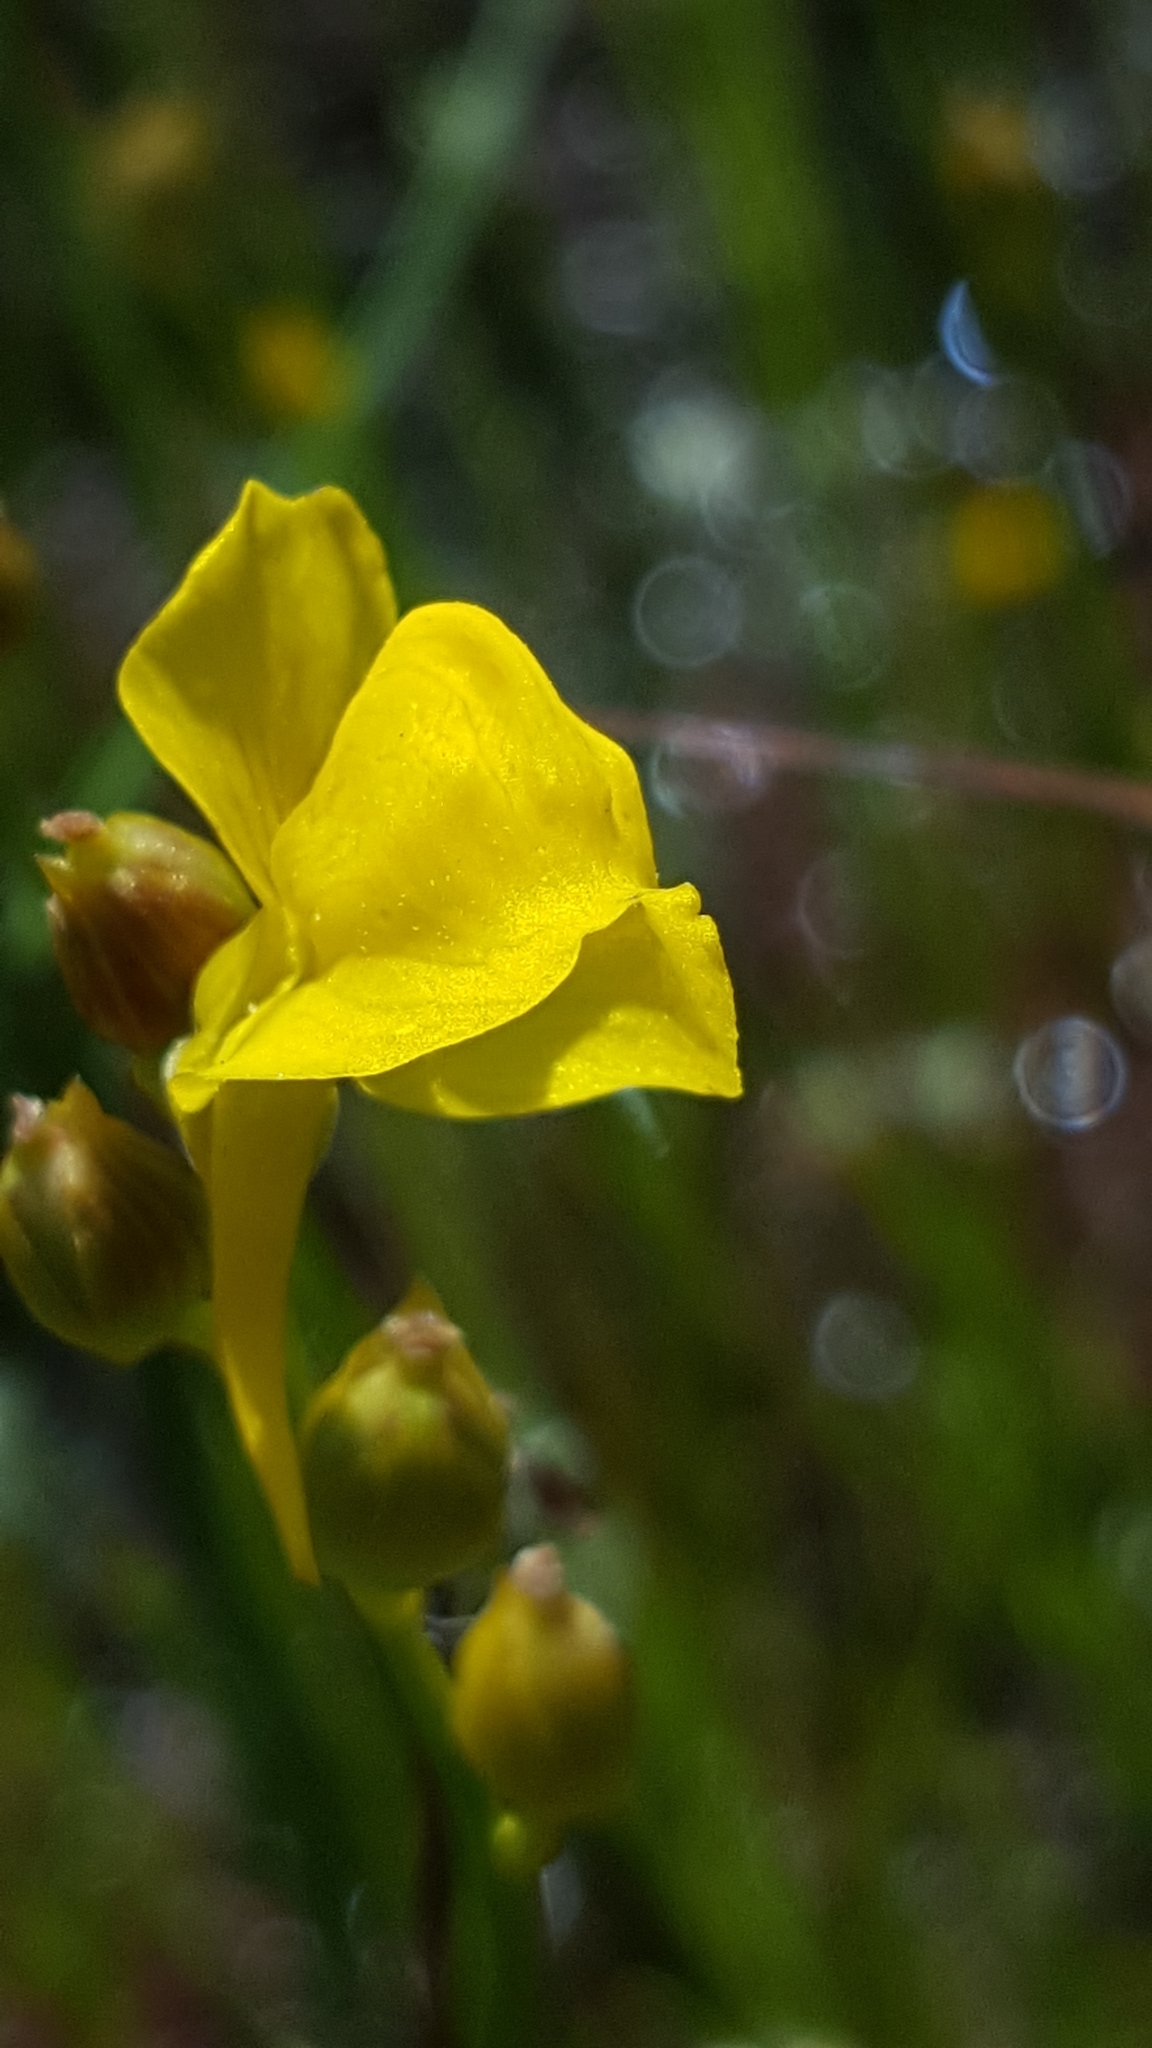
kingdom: Plantae
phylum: Tracheophyta
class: Magnoliopsida
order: Lamiales
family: Lentibulariaceae
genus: Utricularia
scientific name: Utricularia cornuta
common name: Horned bladderwort
